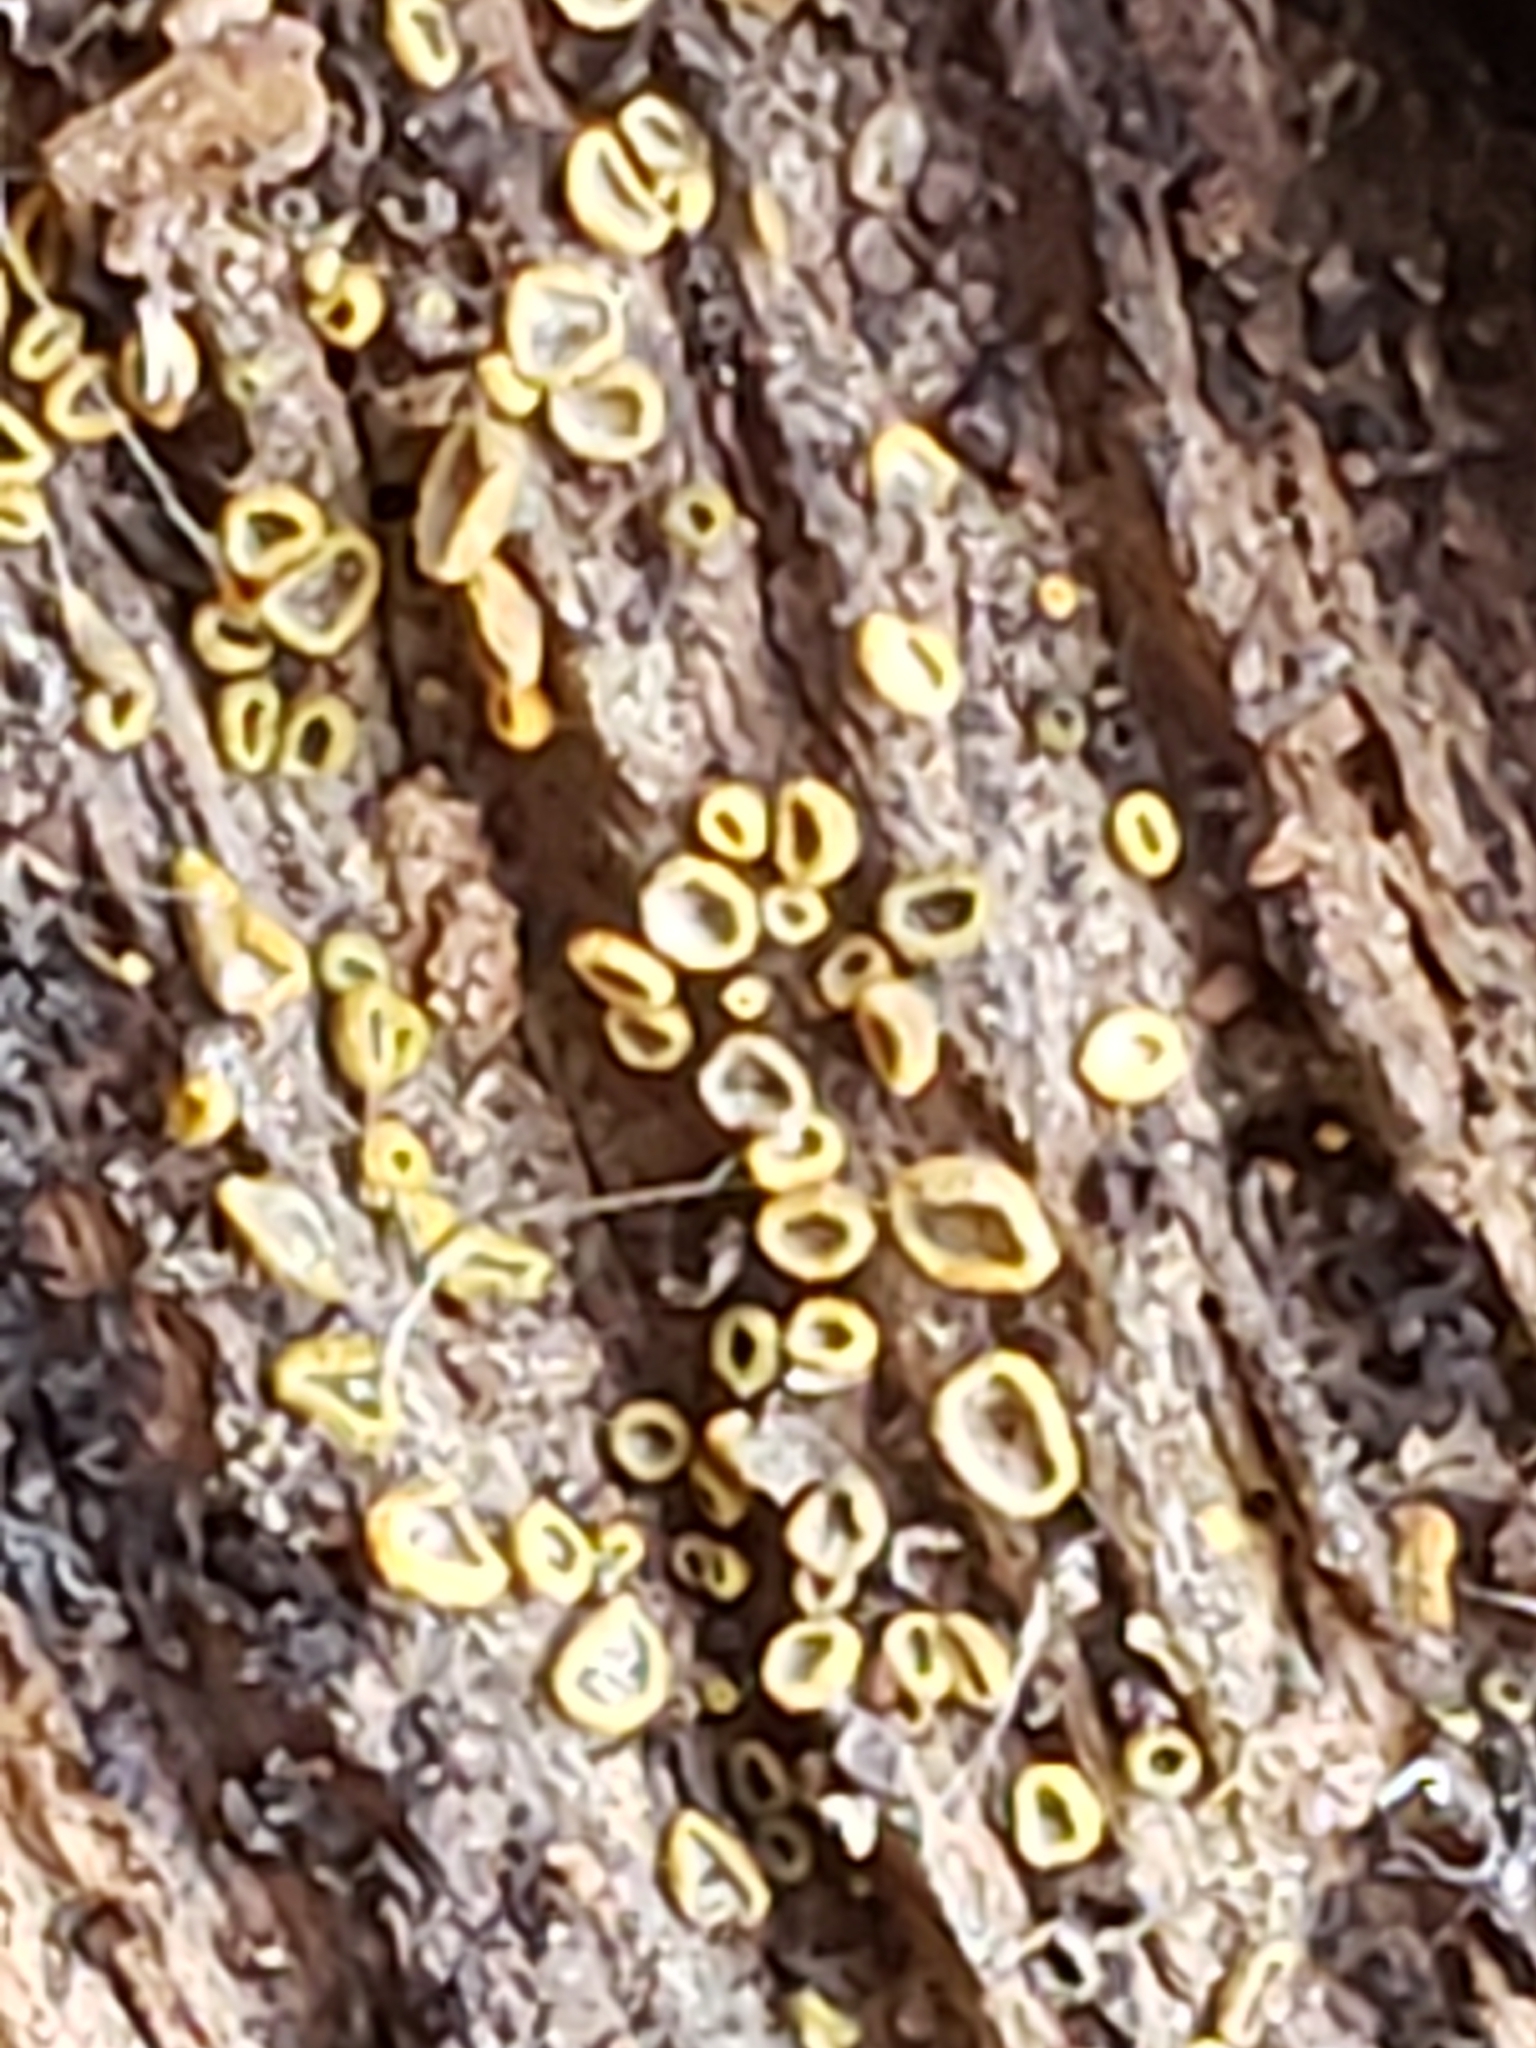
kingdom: Fungi
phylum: Ascomycota
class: Leotiomycetes
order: Helotiales
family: Chlorospleniaceae
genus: Chlorosplenium
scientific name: Chlorosplenium chlora
